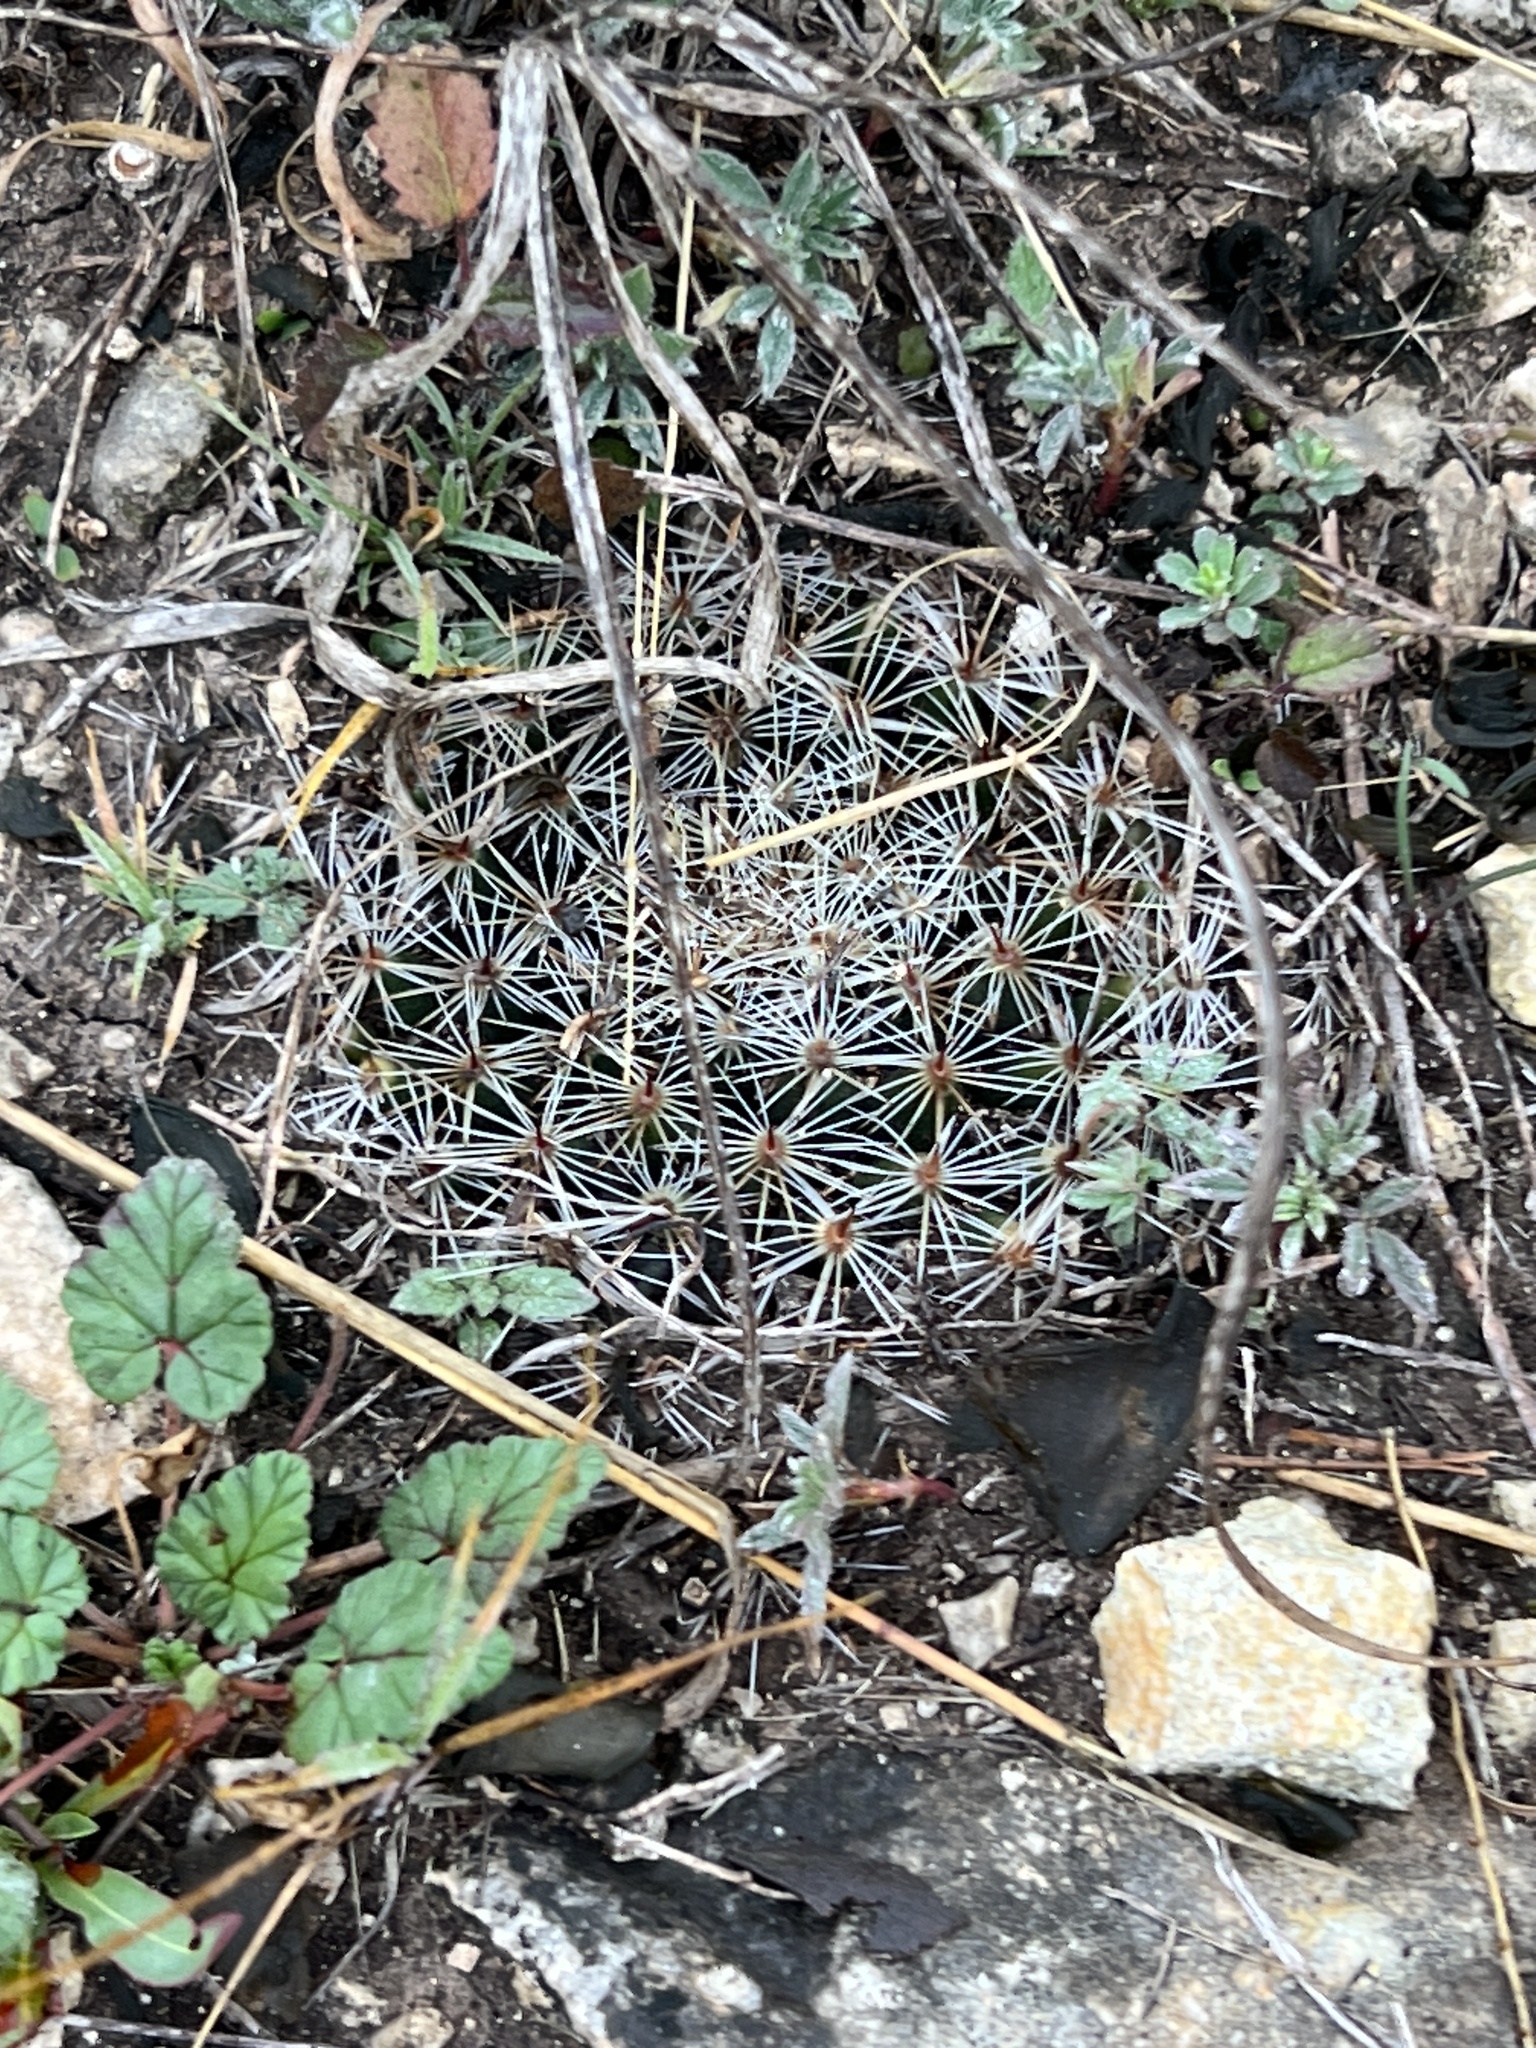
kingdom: Plantae
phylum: Tracheophyta
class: Magnoliopsida
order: Caryophyllales
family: Cactaceae
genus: Mammillaria
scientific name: Mammillaria heyderi
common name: Little nipple cactus
